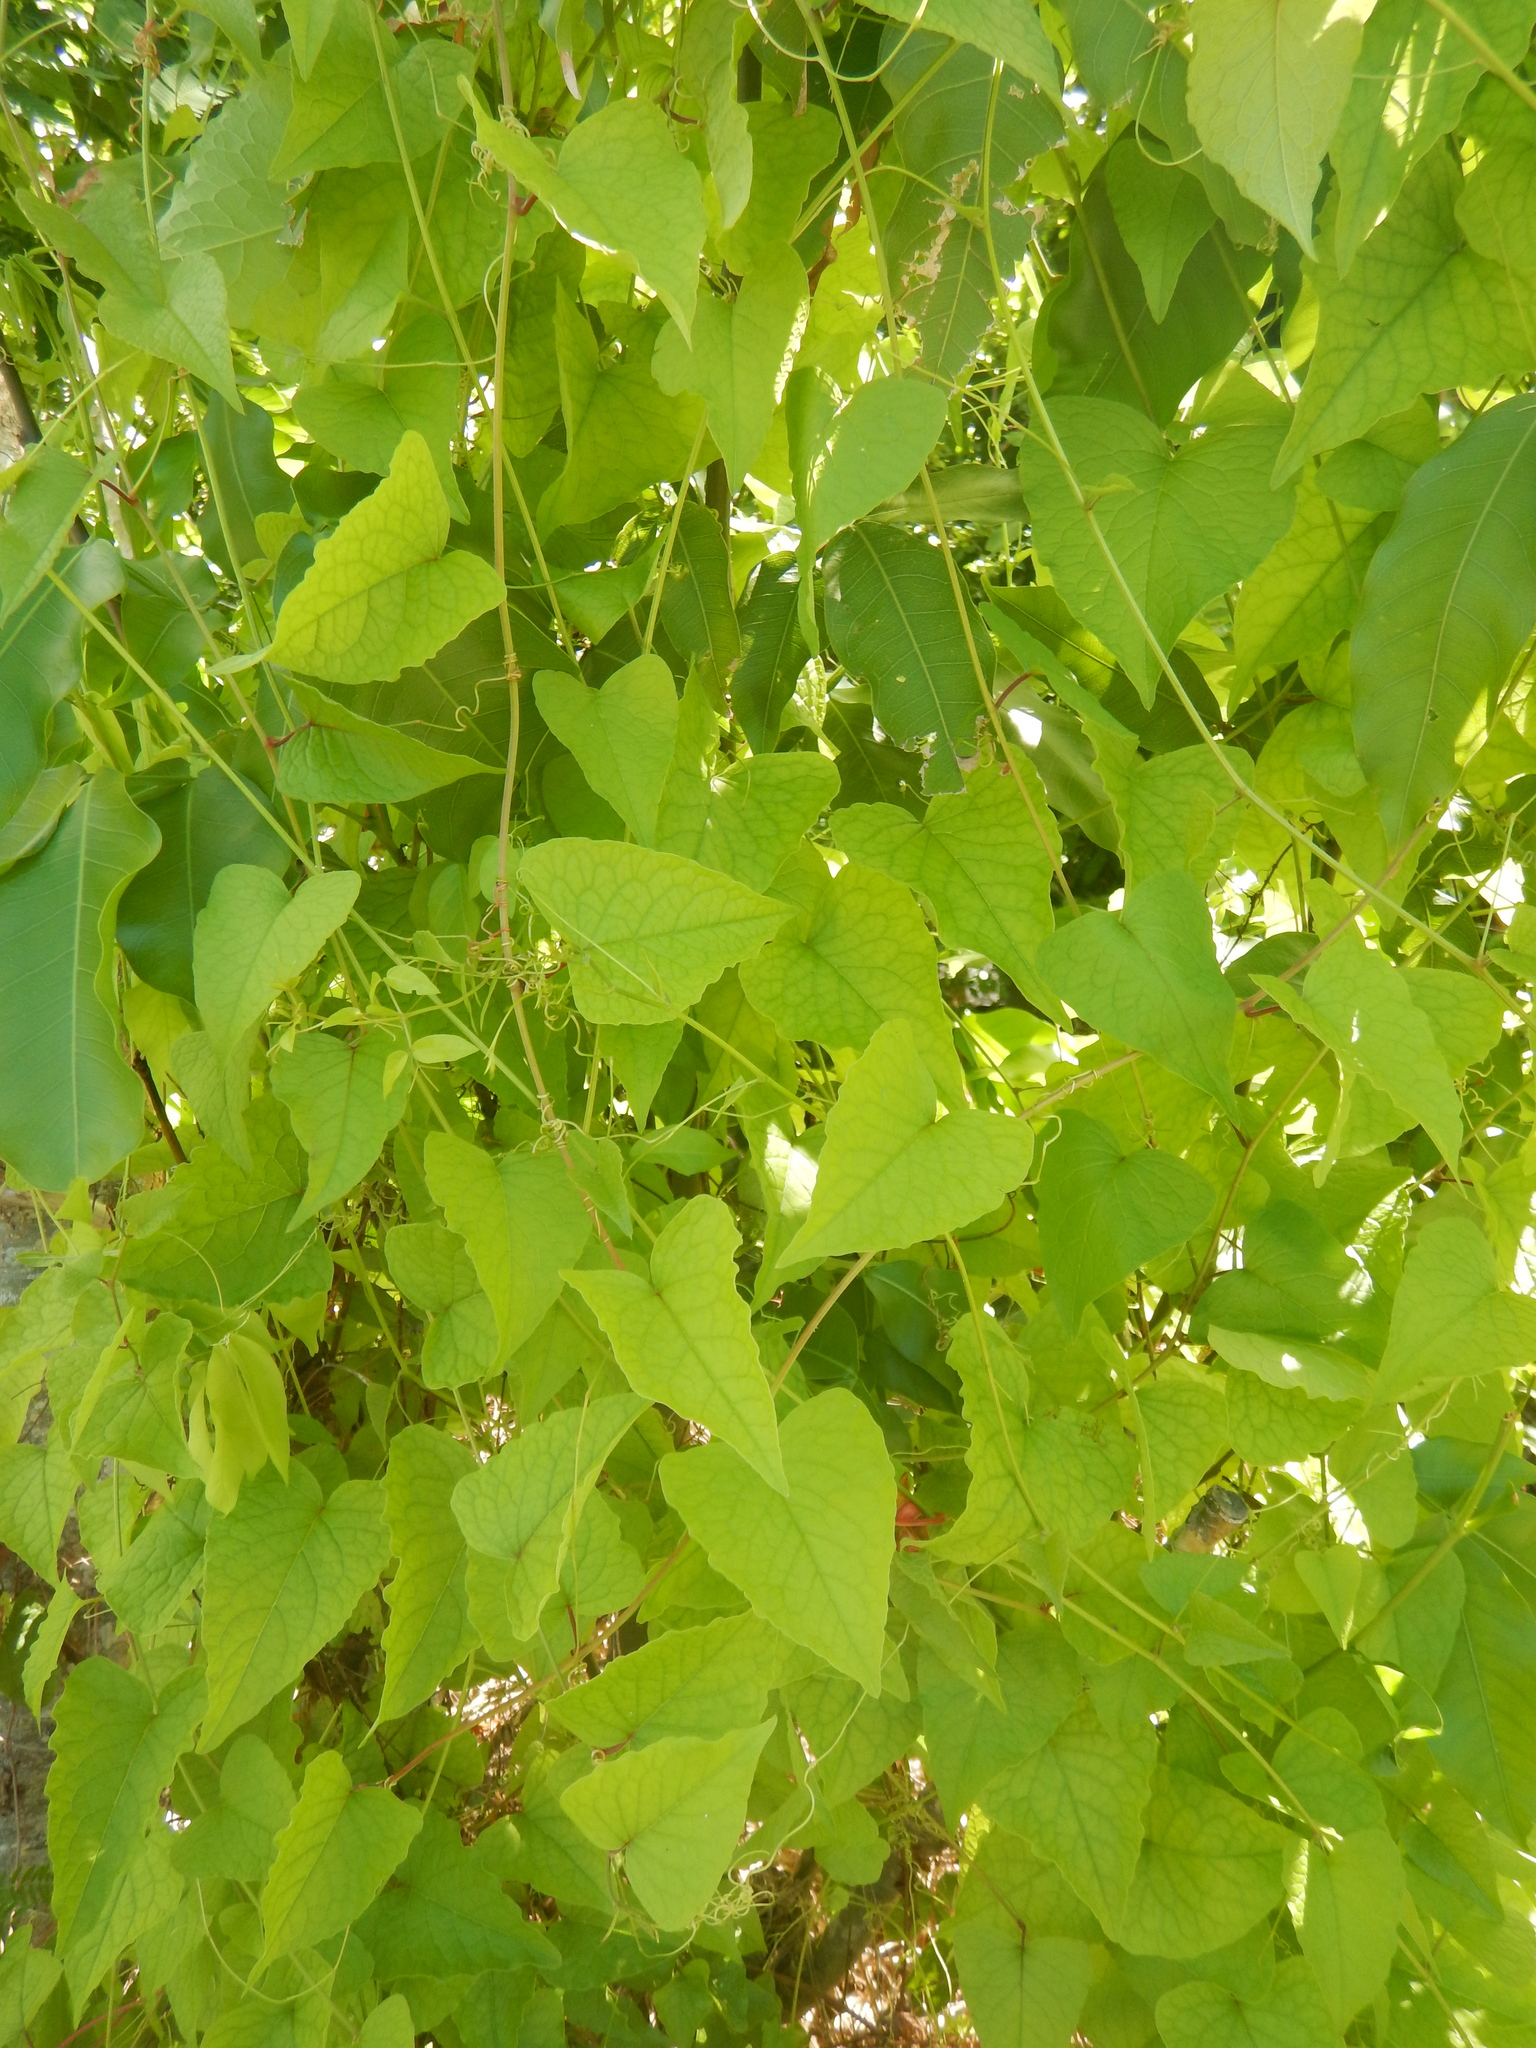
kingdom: Plantae
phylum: Tracheophyta
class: Magnoliopsida
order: Caryophyllales
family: Polygonaceae
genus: Antigonon
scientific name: Antigonon leptopus
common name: Coral vine
